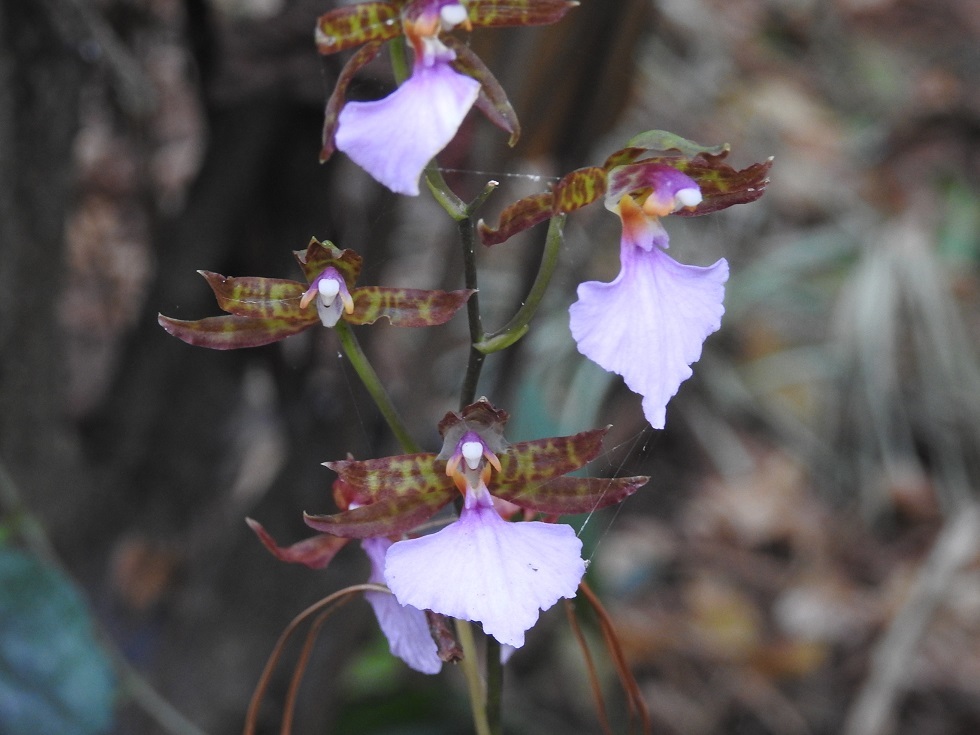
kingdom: Plantae
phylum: Tracheophyta
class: Liliopsida
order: Asparagales
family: Orchidaceae
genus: Rhynchostele
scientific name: Rhynchostele bictoniensis
